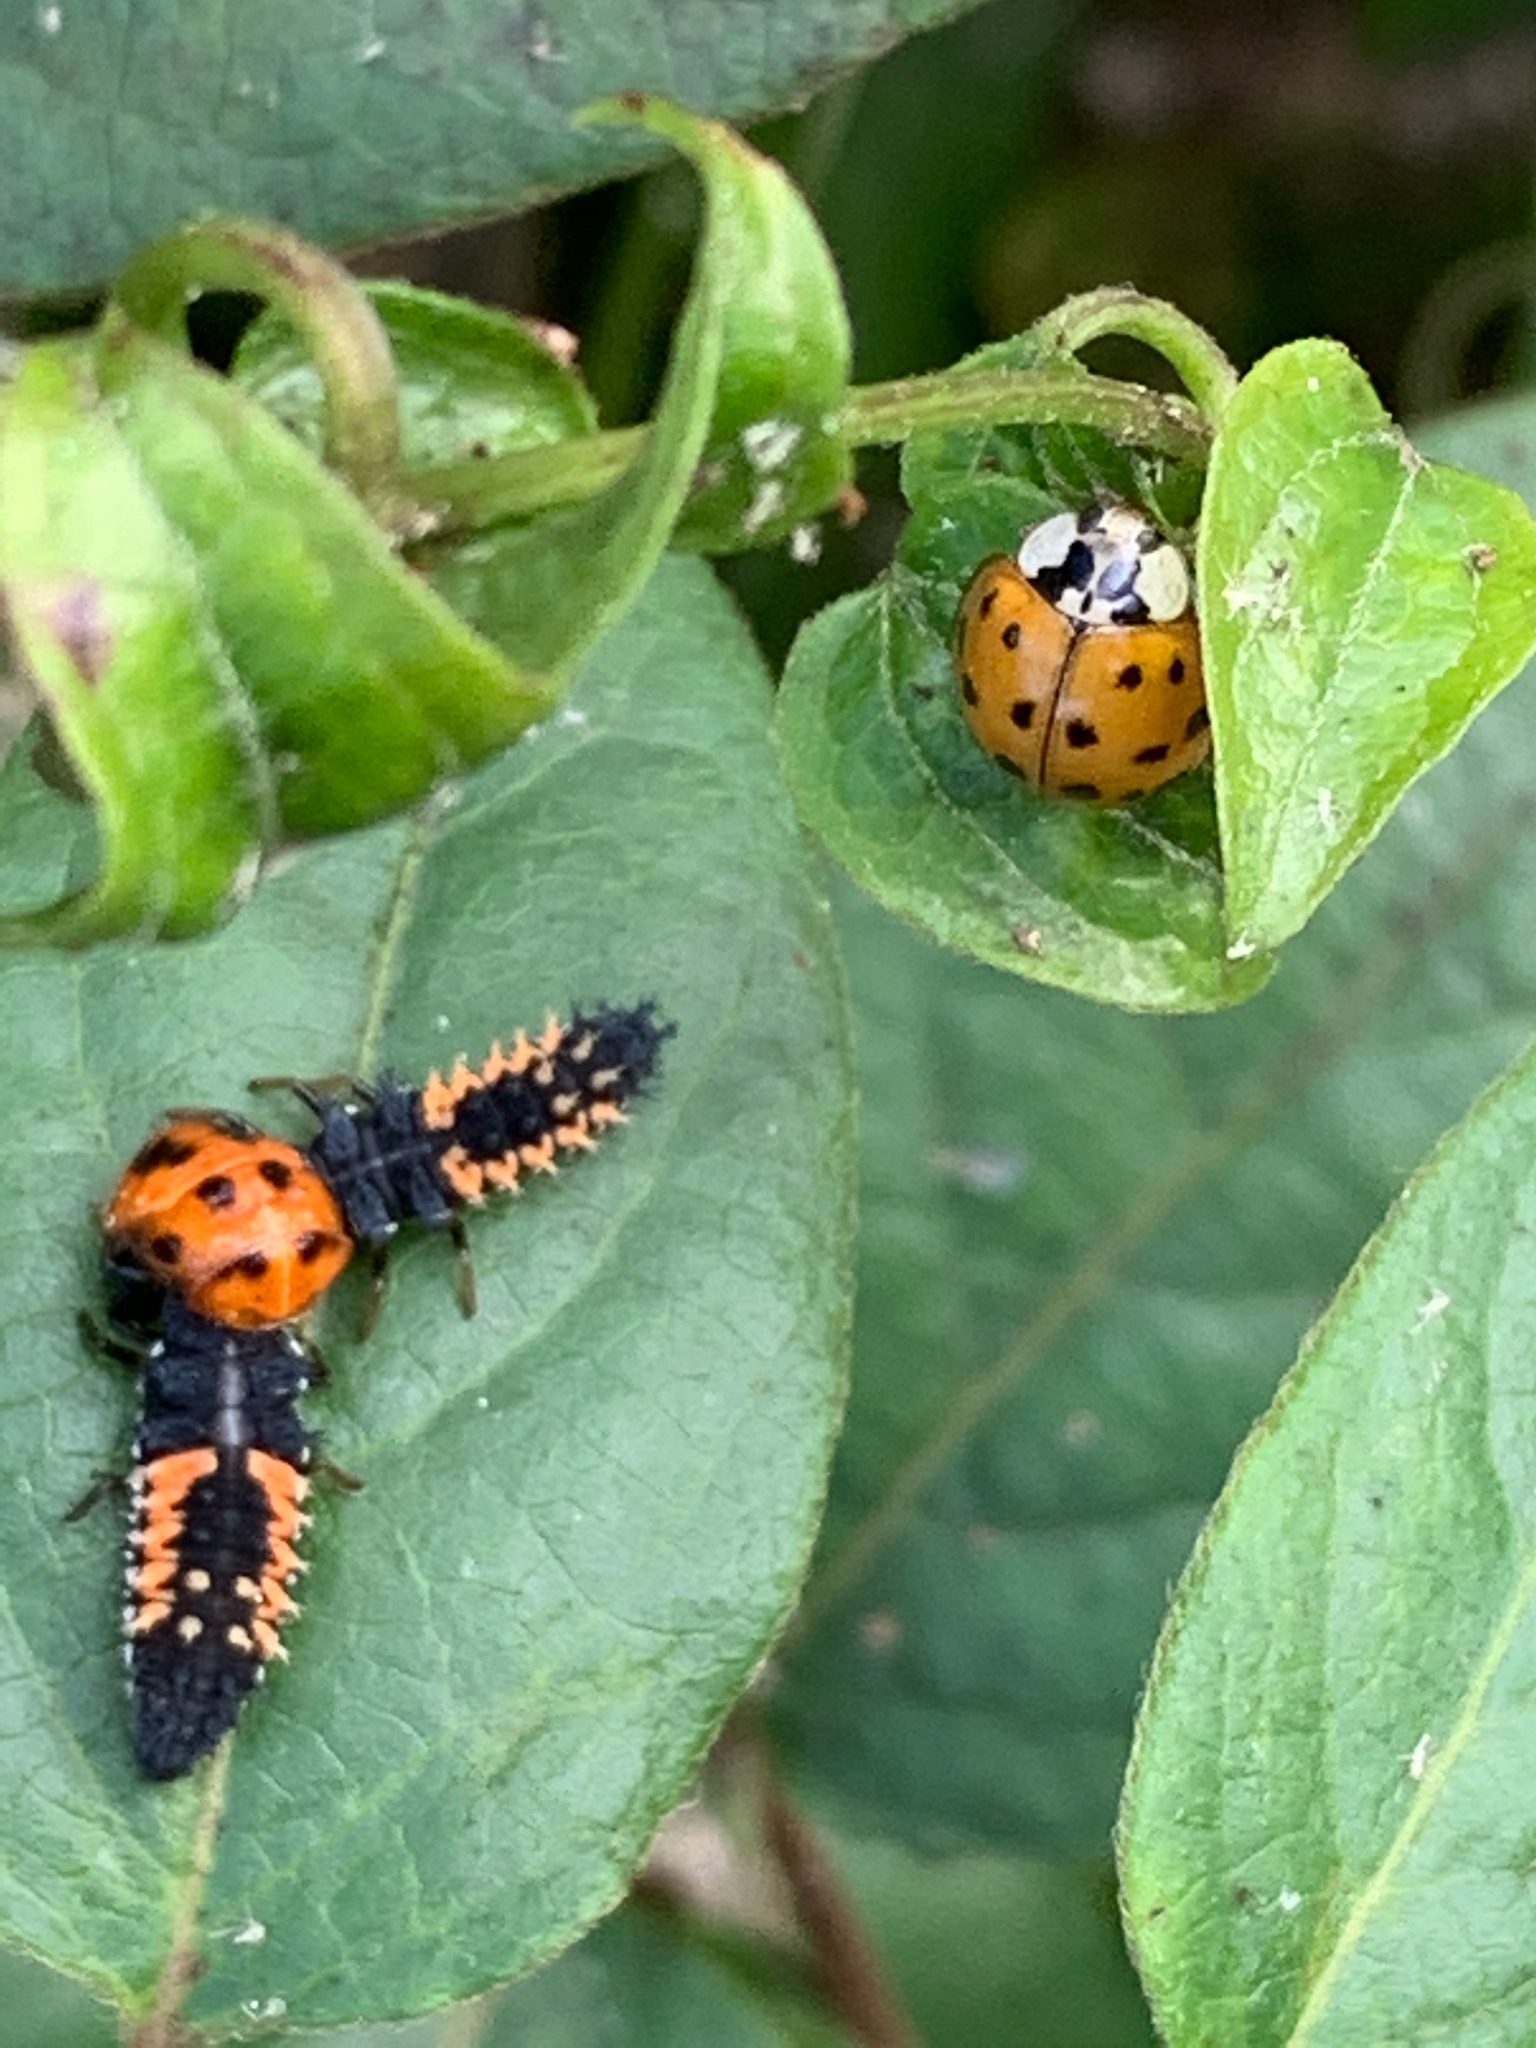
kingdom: Animalia
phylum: Arthropoda
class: Insecta
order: Coleoptera
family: Coccinellidae
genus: Harmonia
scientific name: Harmonia axyridis
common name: Harlequin ladybird
